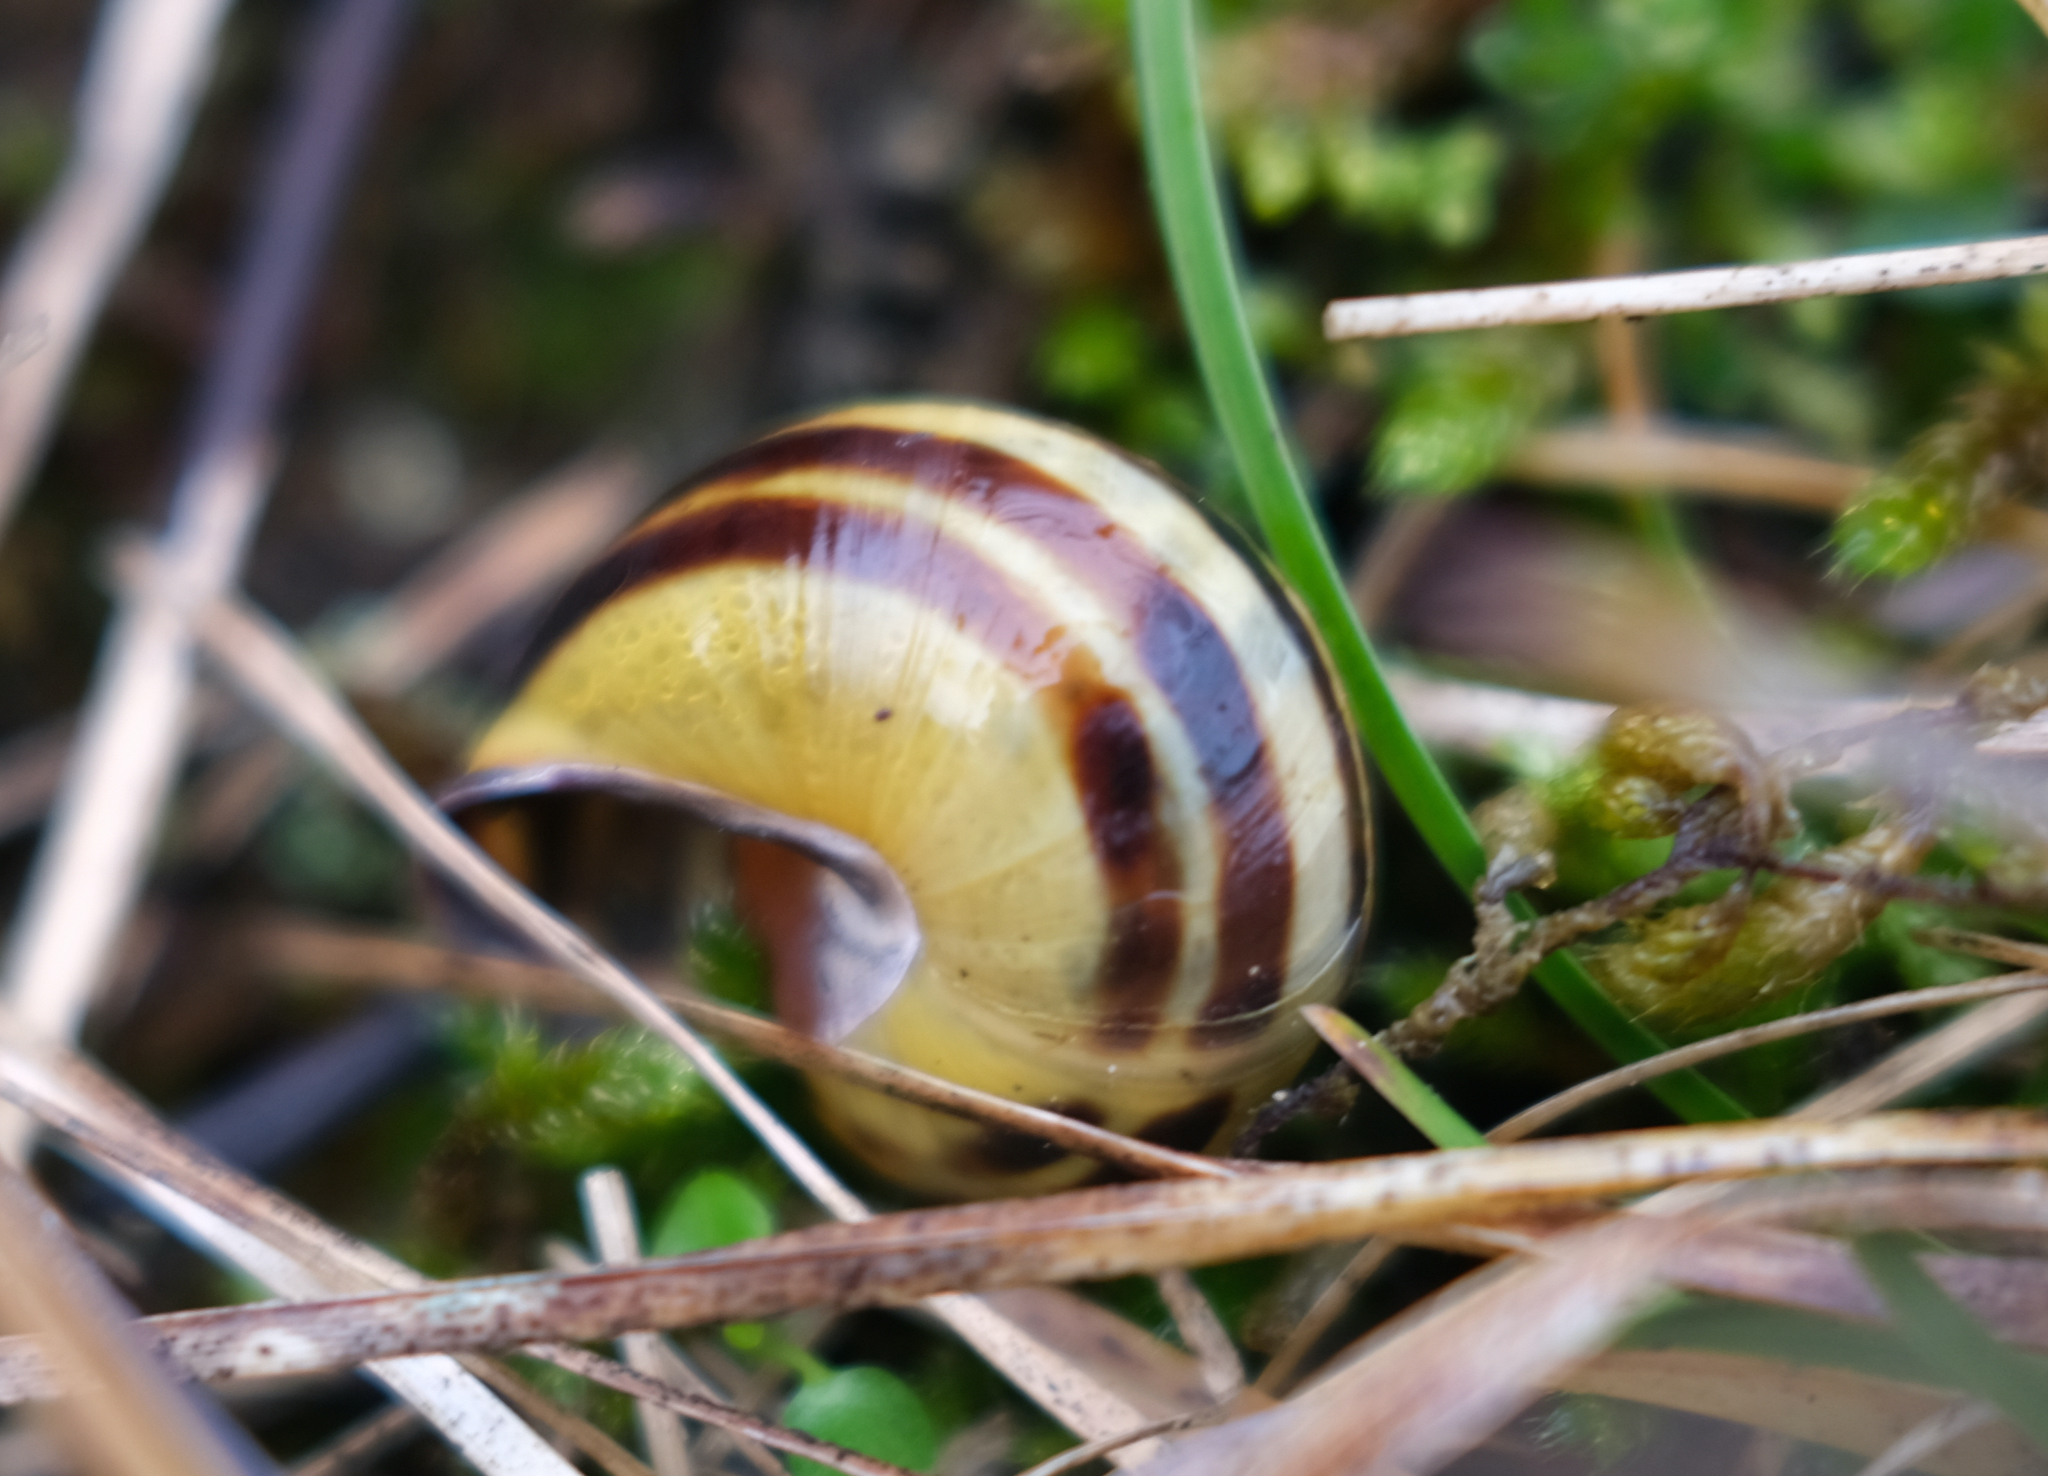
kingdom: Animalia
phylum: Mollusca
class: Gastropoda
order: Stylommatophora
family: Helicidae
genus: Cepaea
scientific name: Cepaea nemoralis
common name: Grovesnail
